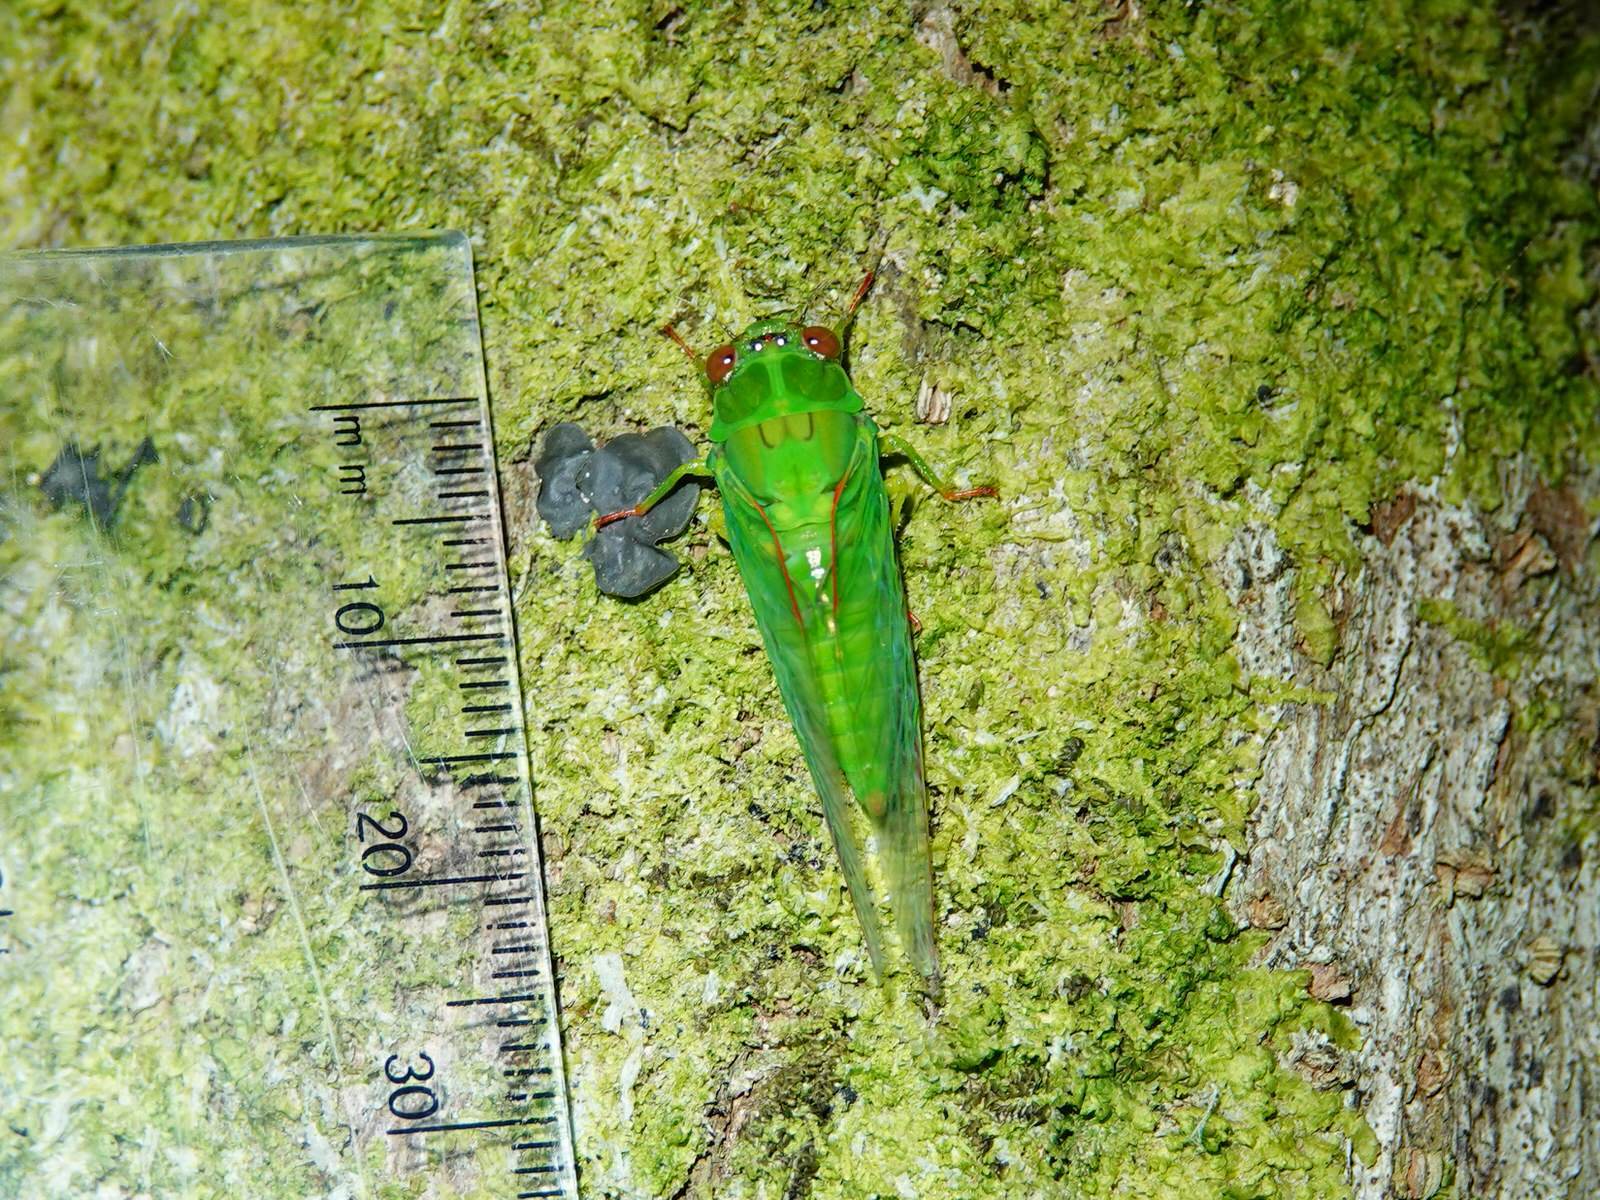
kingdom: Animalia
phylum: Arthropoda
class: Insecta
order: Hemiptera
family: Cicadidae
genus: Kikihia
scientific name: Kikihia ochrina
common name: April green cicada
